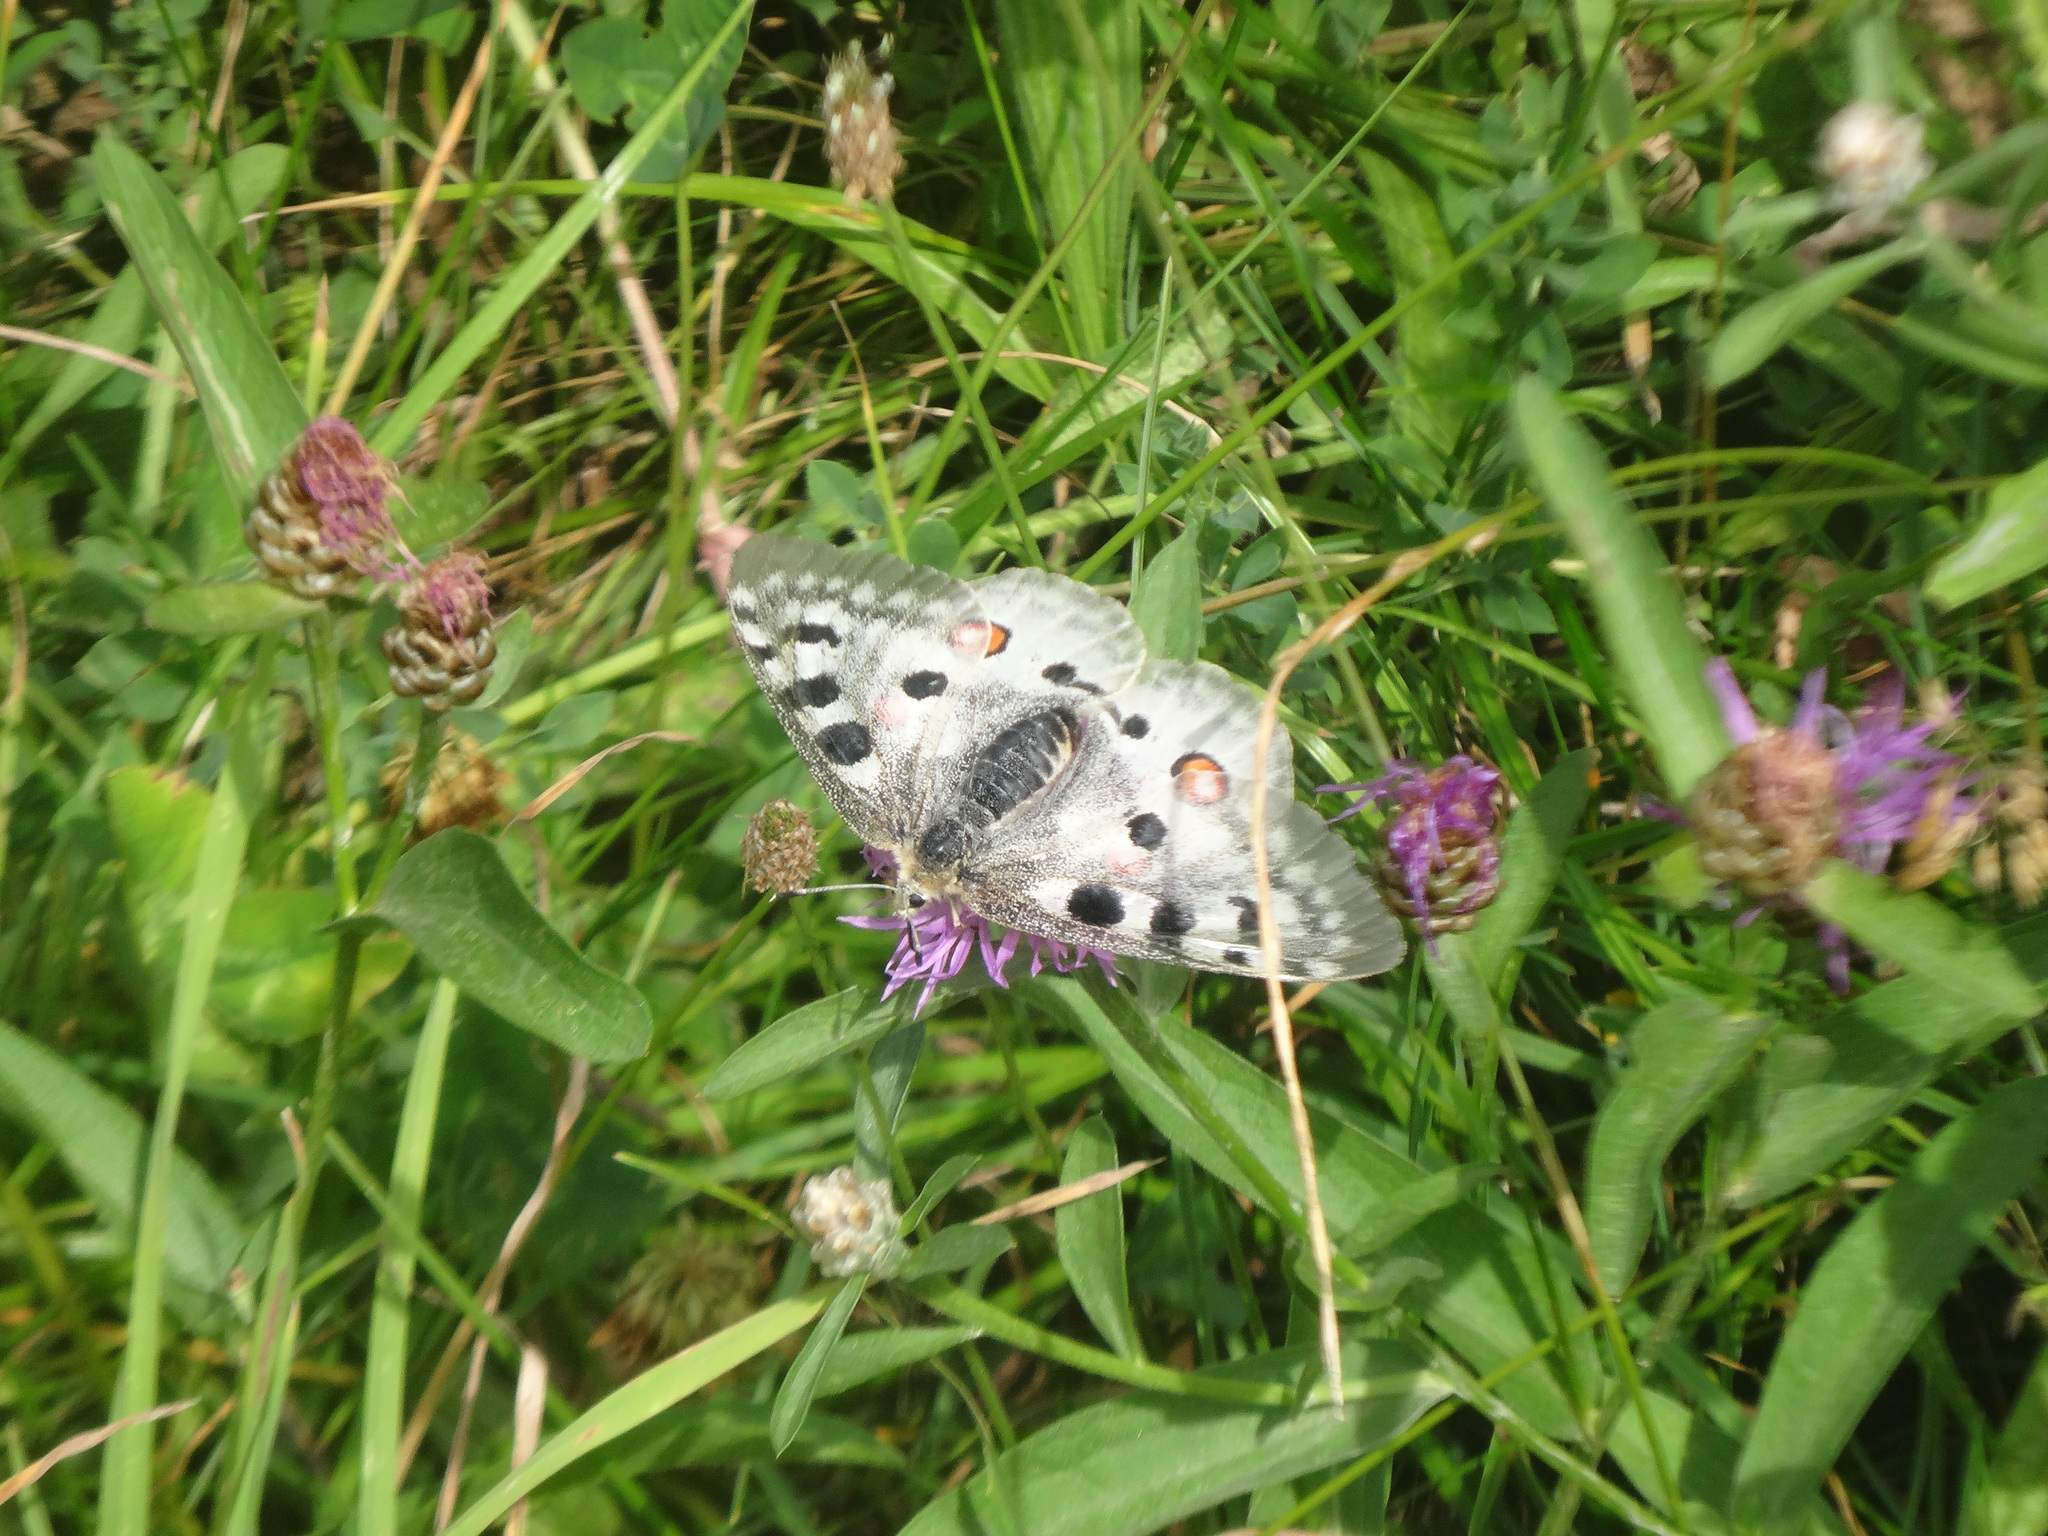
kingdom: Animalia
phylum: Arthropoda
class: Insecta
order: Lepidoptera
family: Papilionidae
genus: Parnassius
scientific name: Parnassius apollo
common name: Apollo
